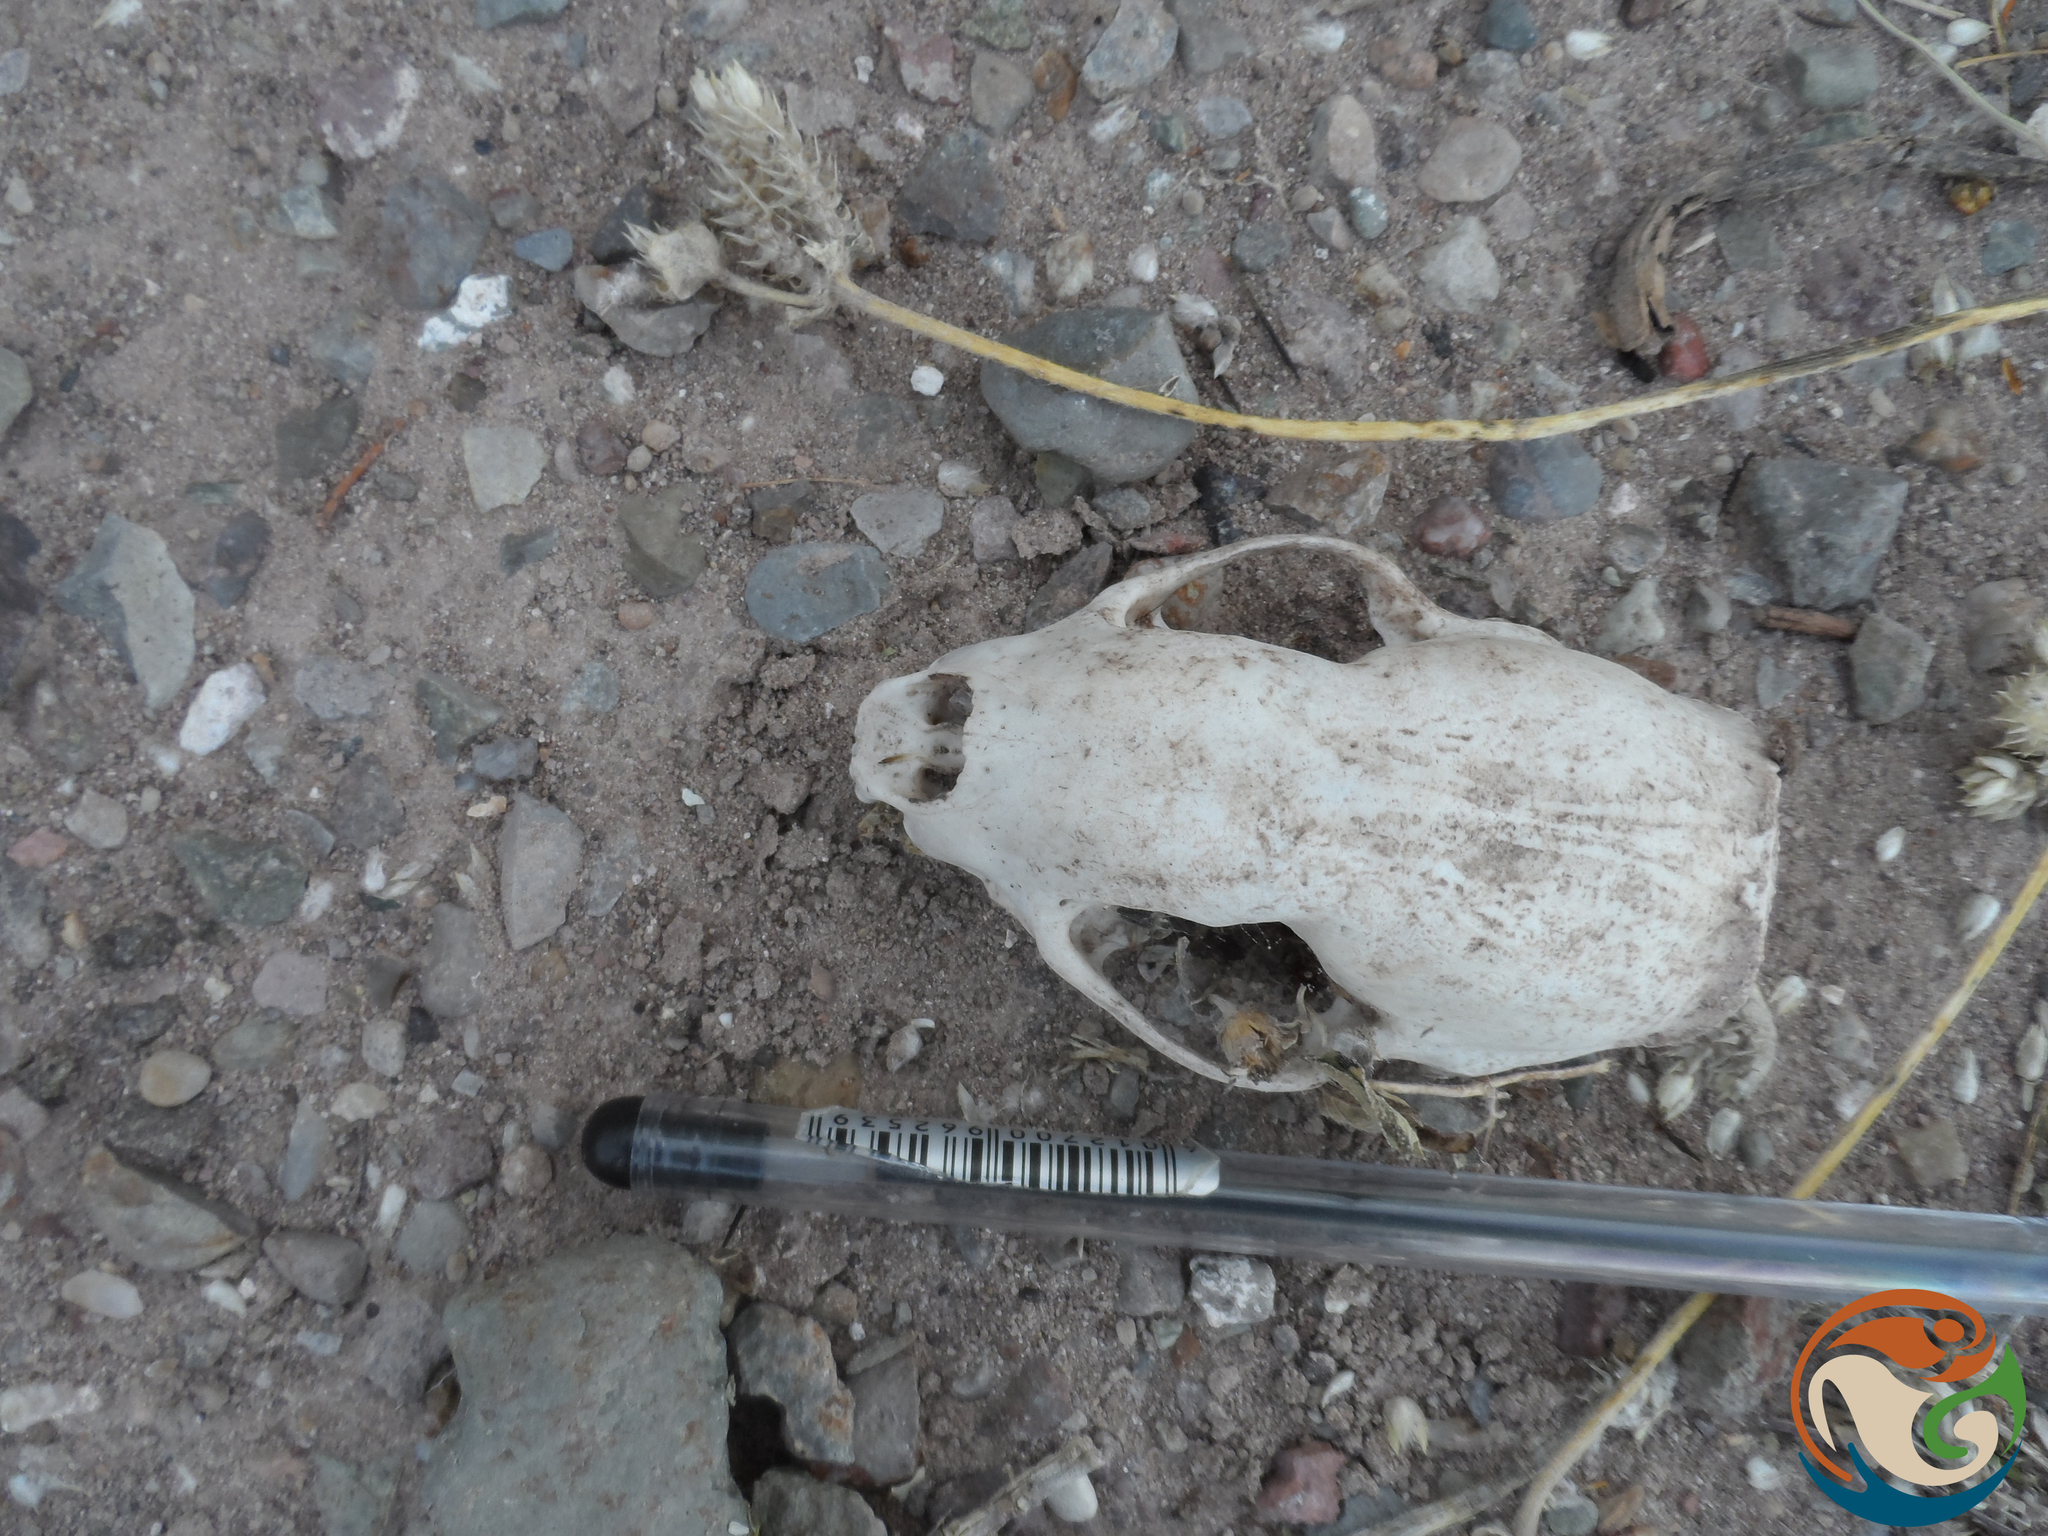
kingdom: Animalia
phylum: Chordata
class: Mammalia
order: Carnivora
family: Mephitidae
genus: Conepatus
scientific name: Conepatus leuconotus
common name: Eastern hog-nosed skunk
